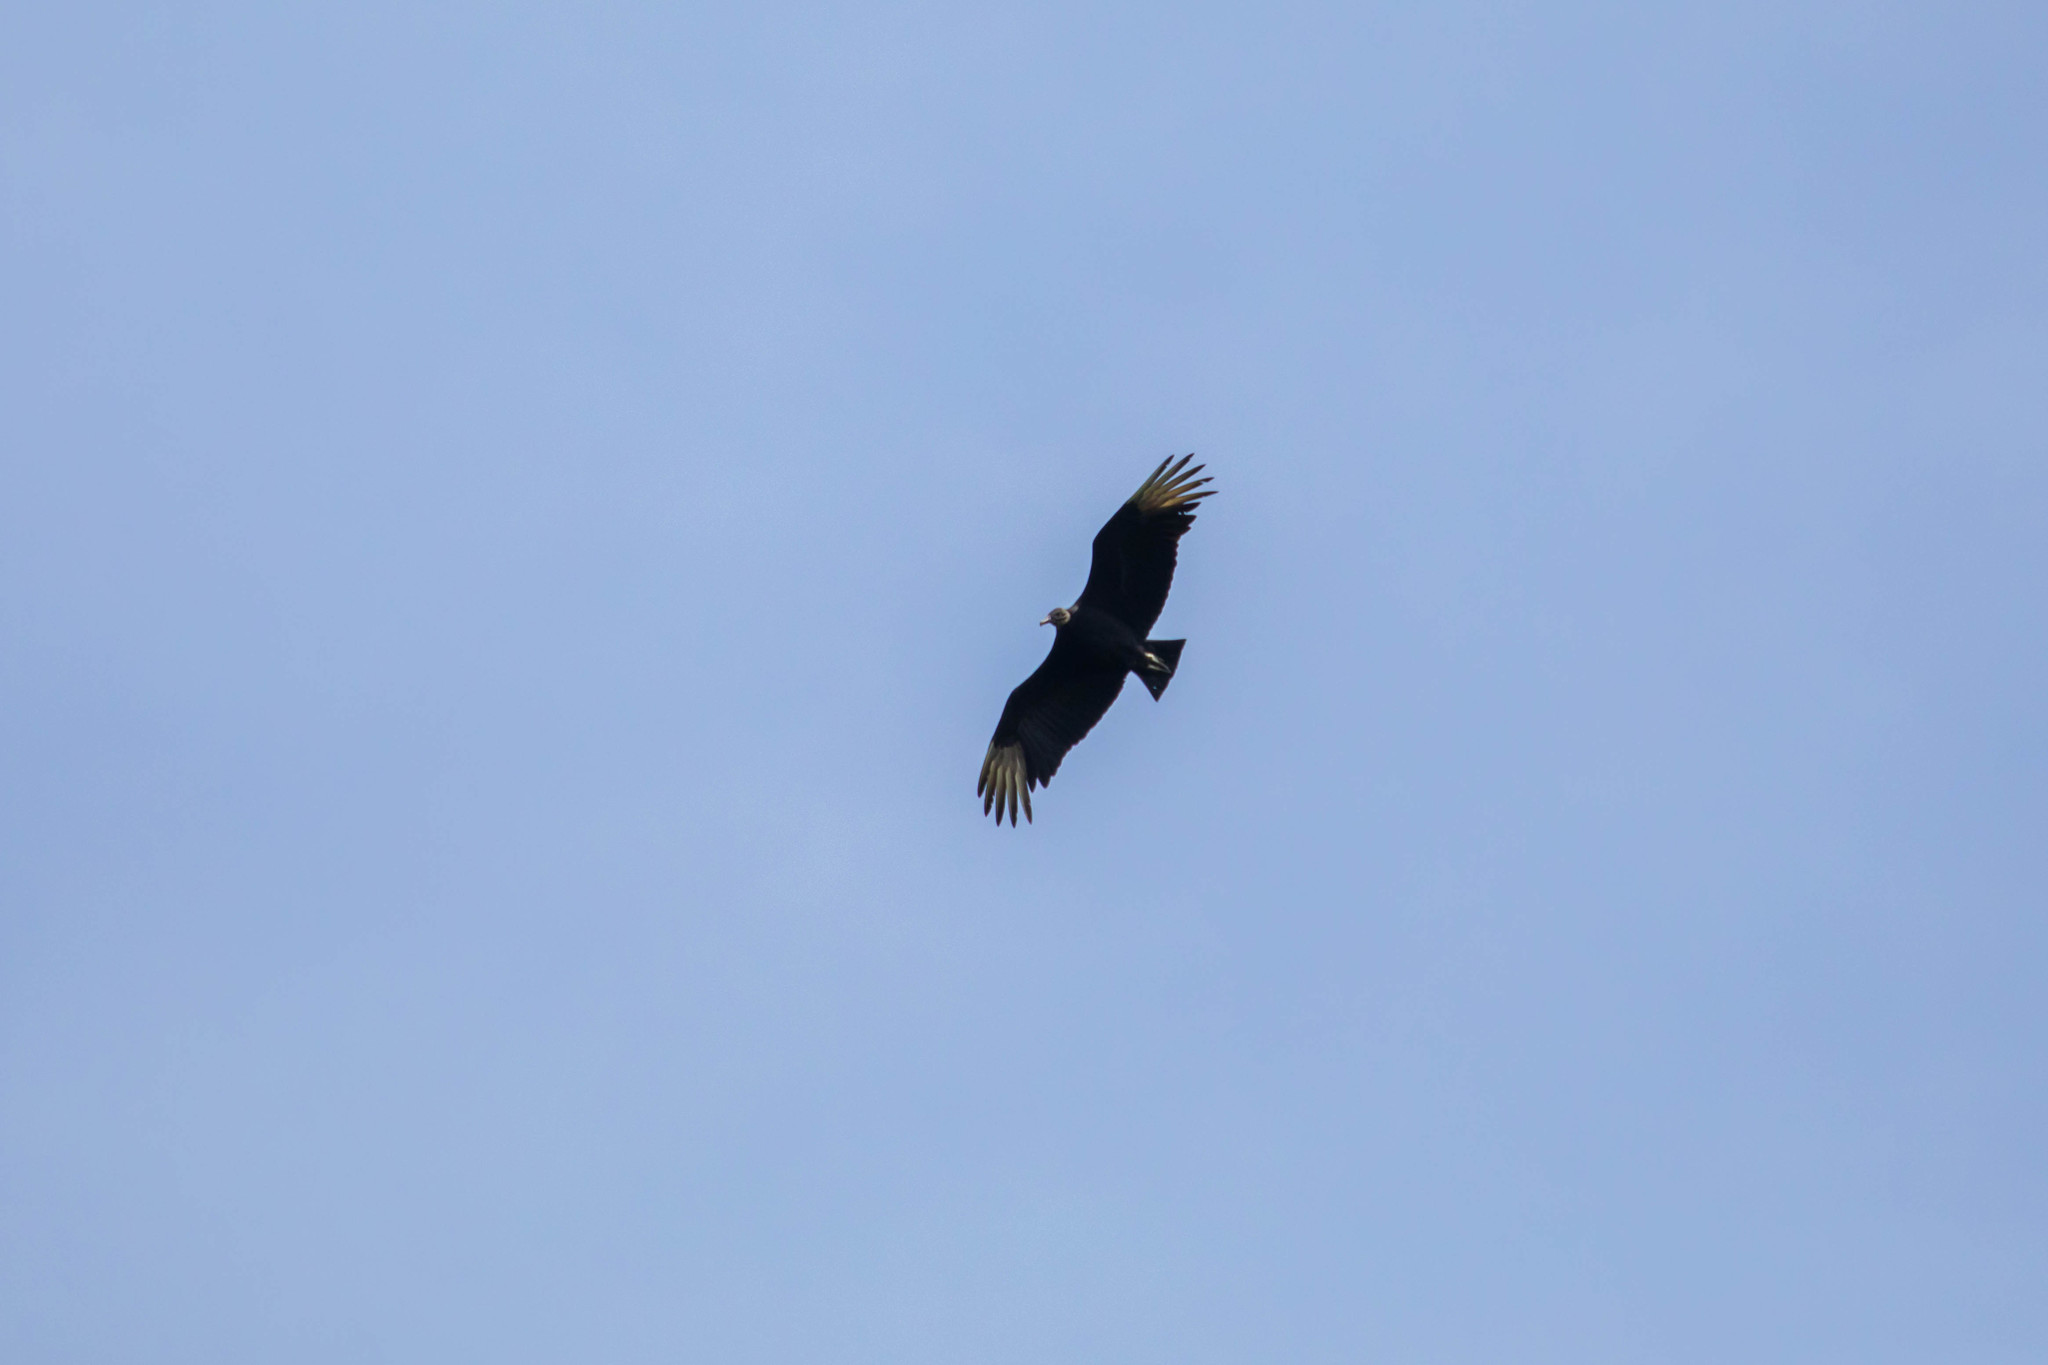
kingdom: Animalia
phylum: Chordata
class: Aves
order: Accipitriformes
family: Cathartidae
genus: Coragyps
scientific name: Coragyps atratus
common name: Black vulture
